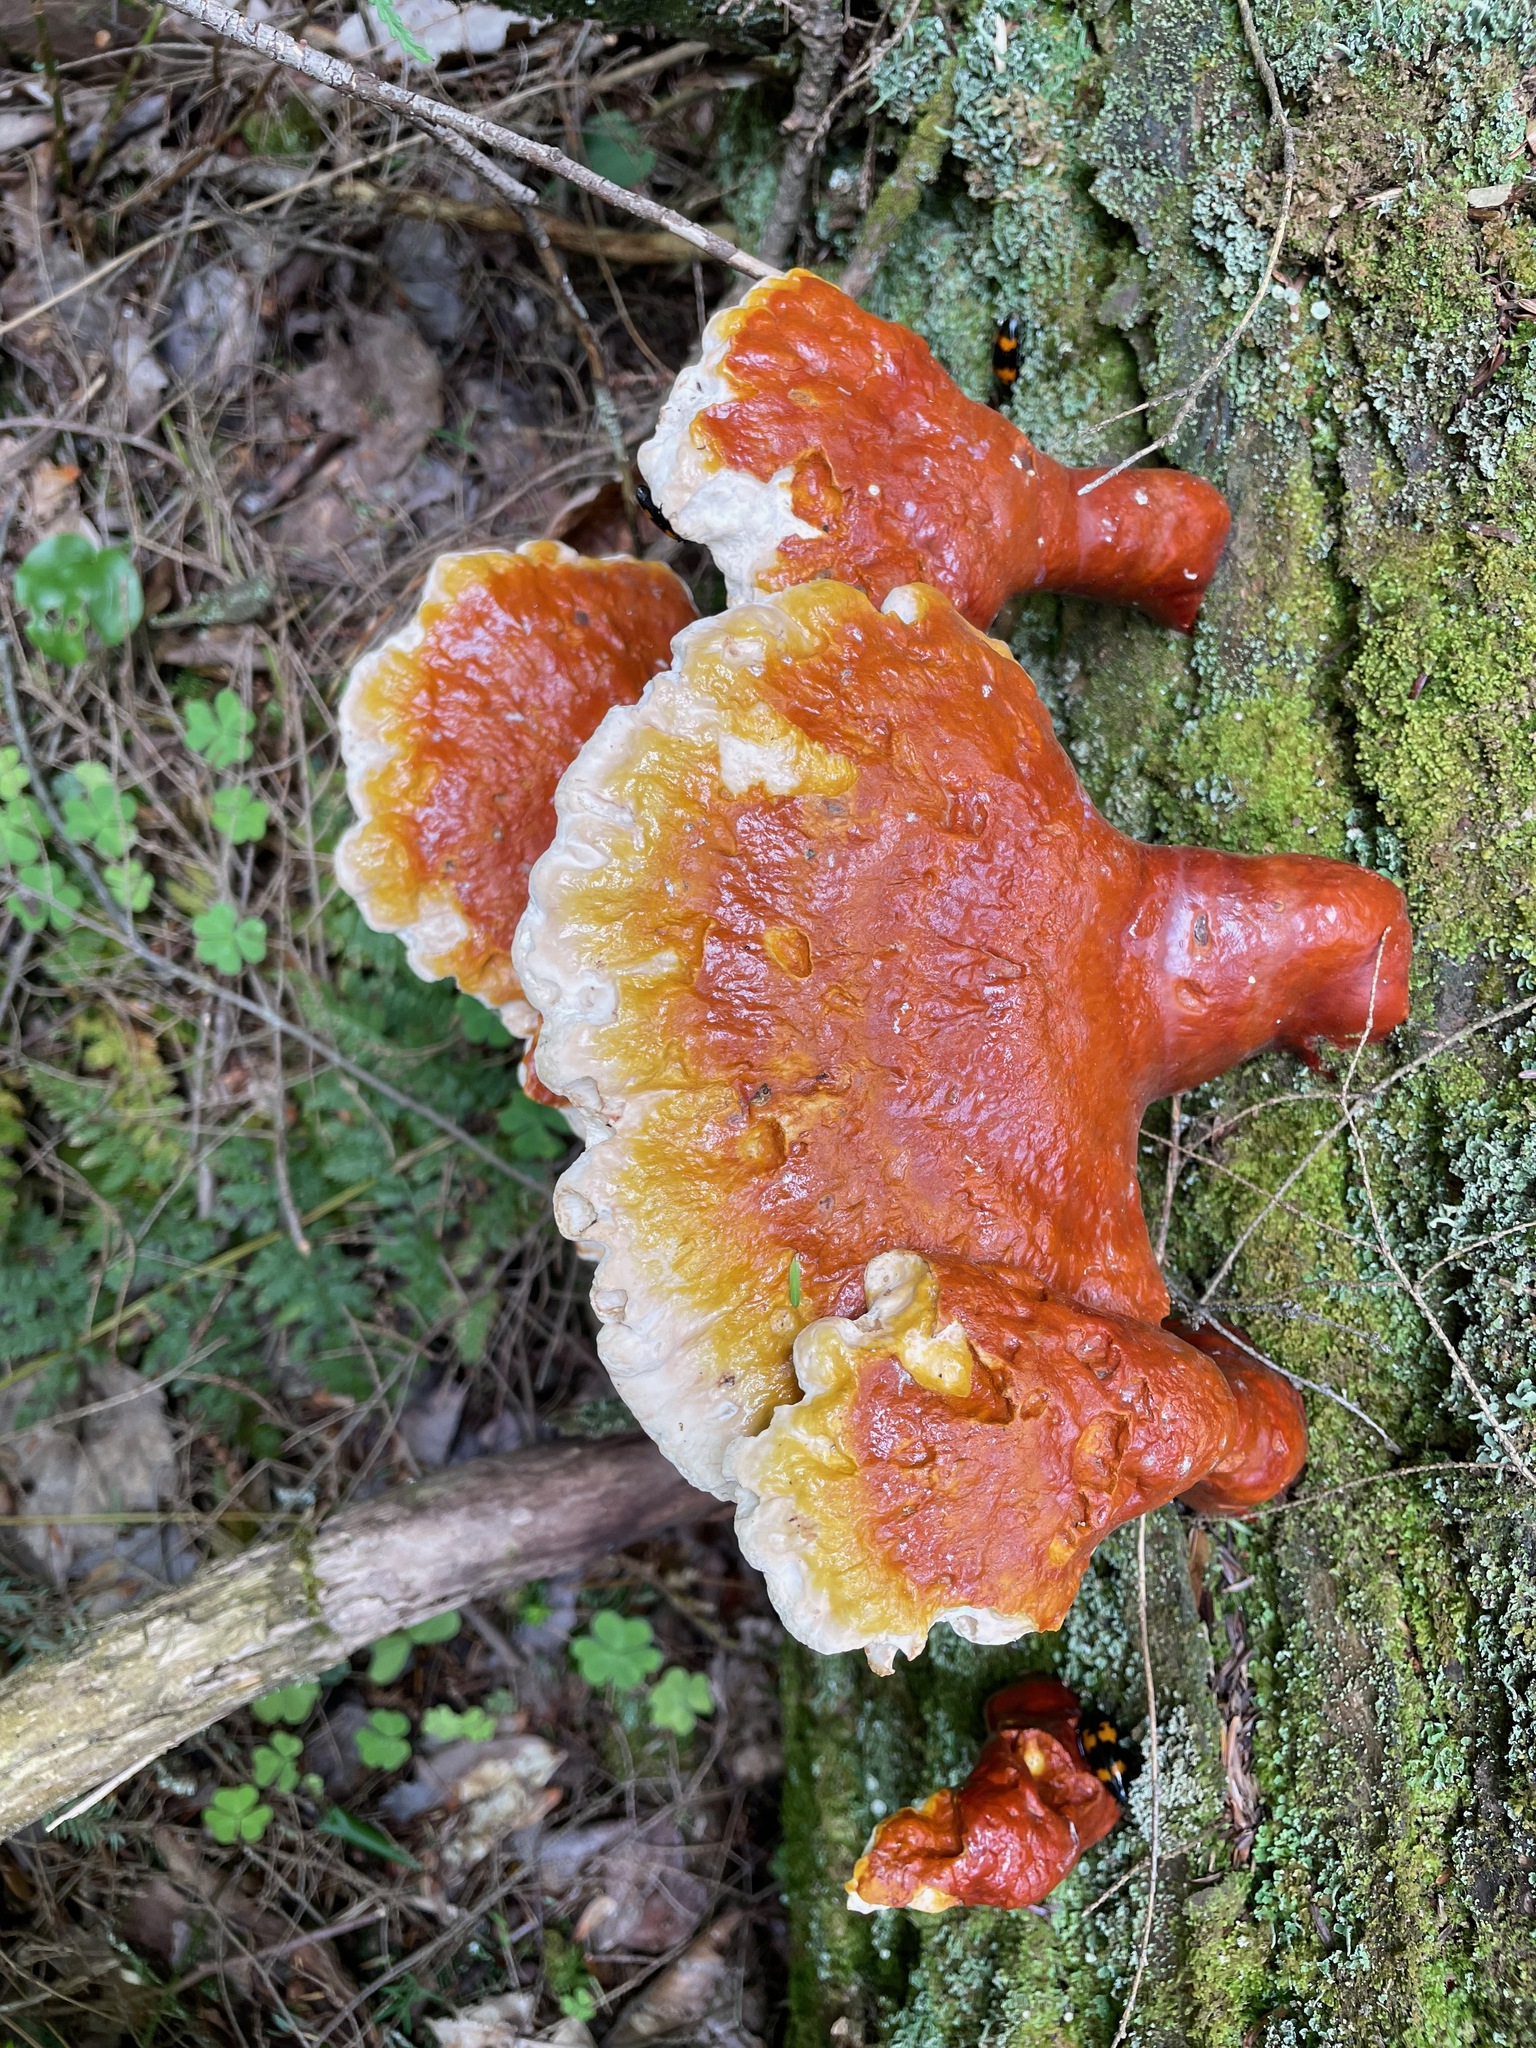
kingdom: Fungi
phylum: Basidiomycota
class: Agaricomycetes
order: Polyporales
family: Polyporaceae
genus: Ganoderma
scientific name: Ganoderma tsugae
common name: Hemlock varnish shelf
